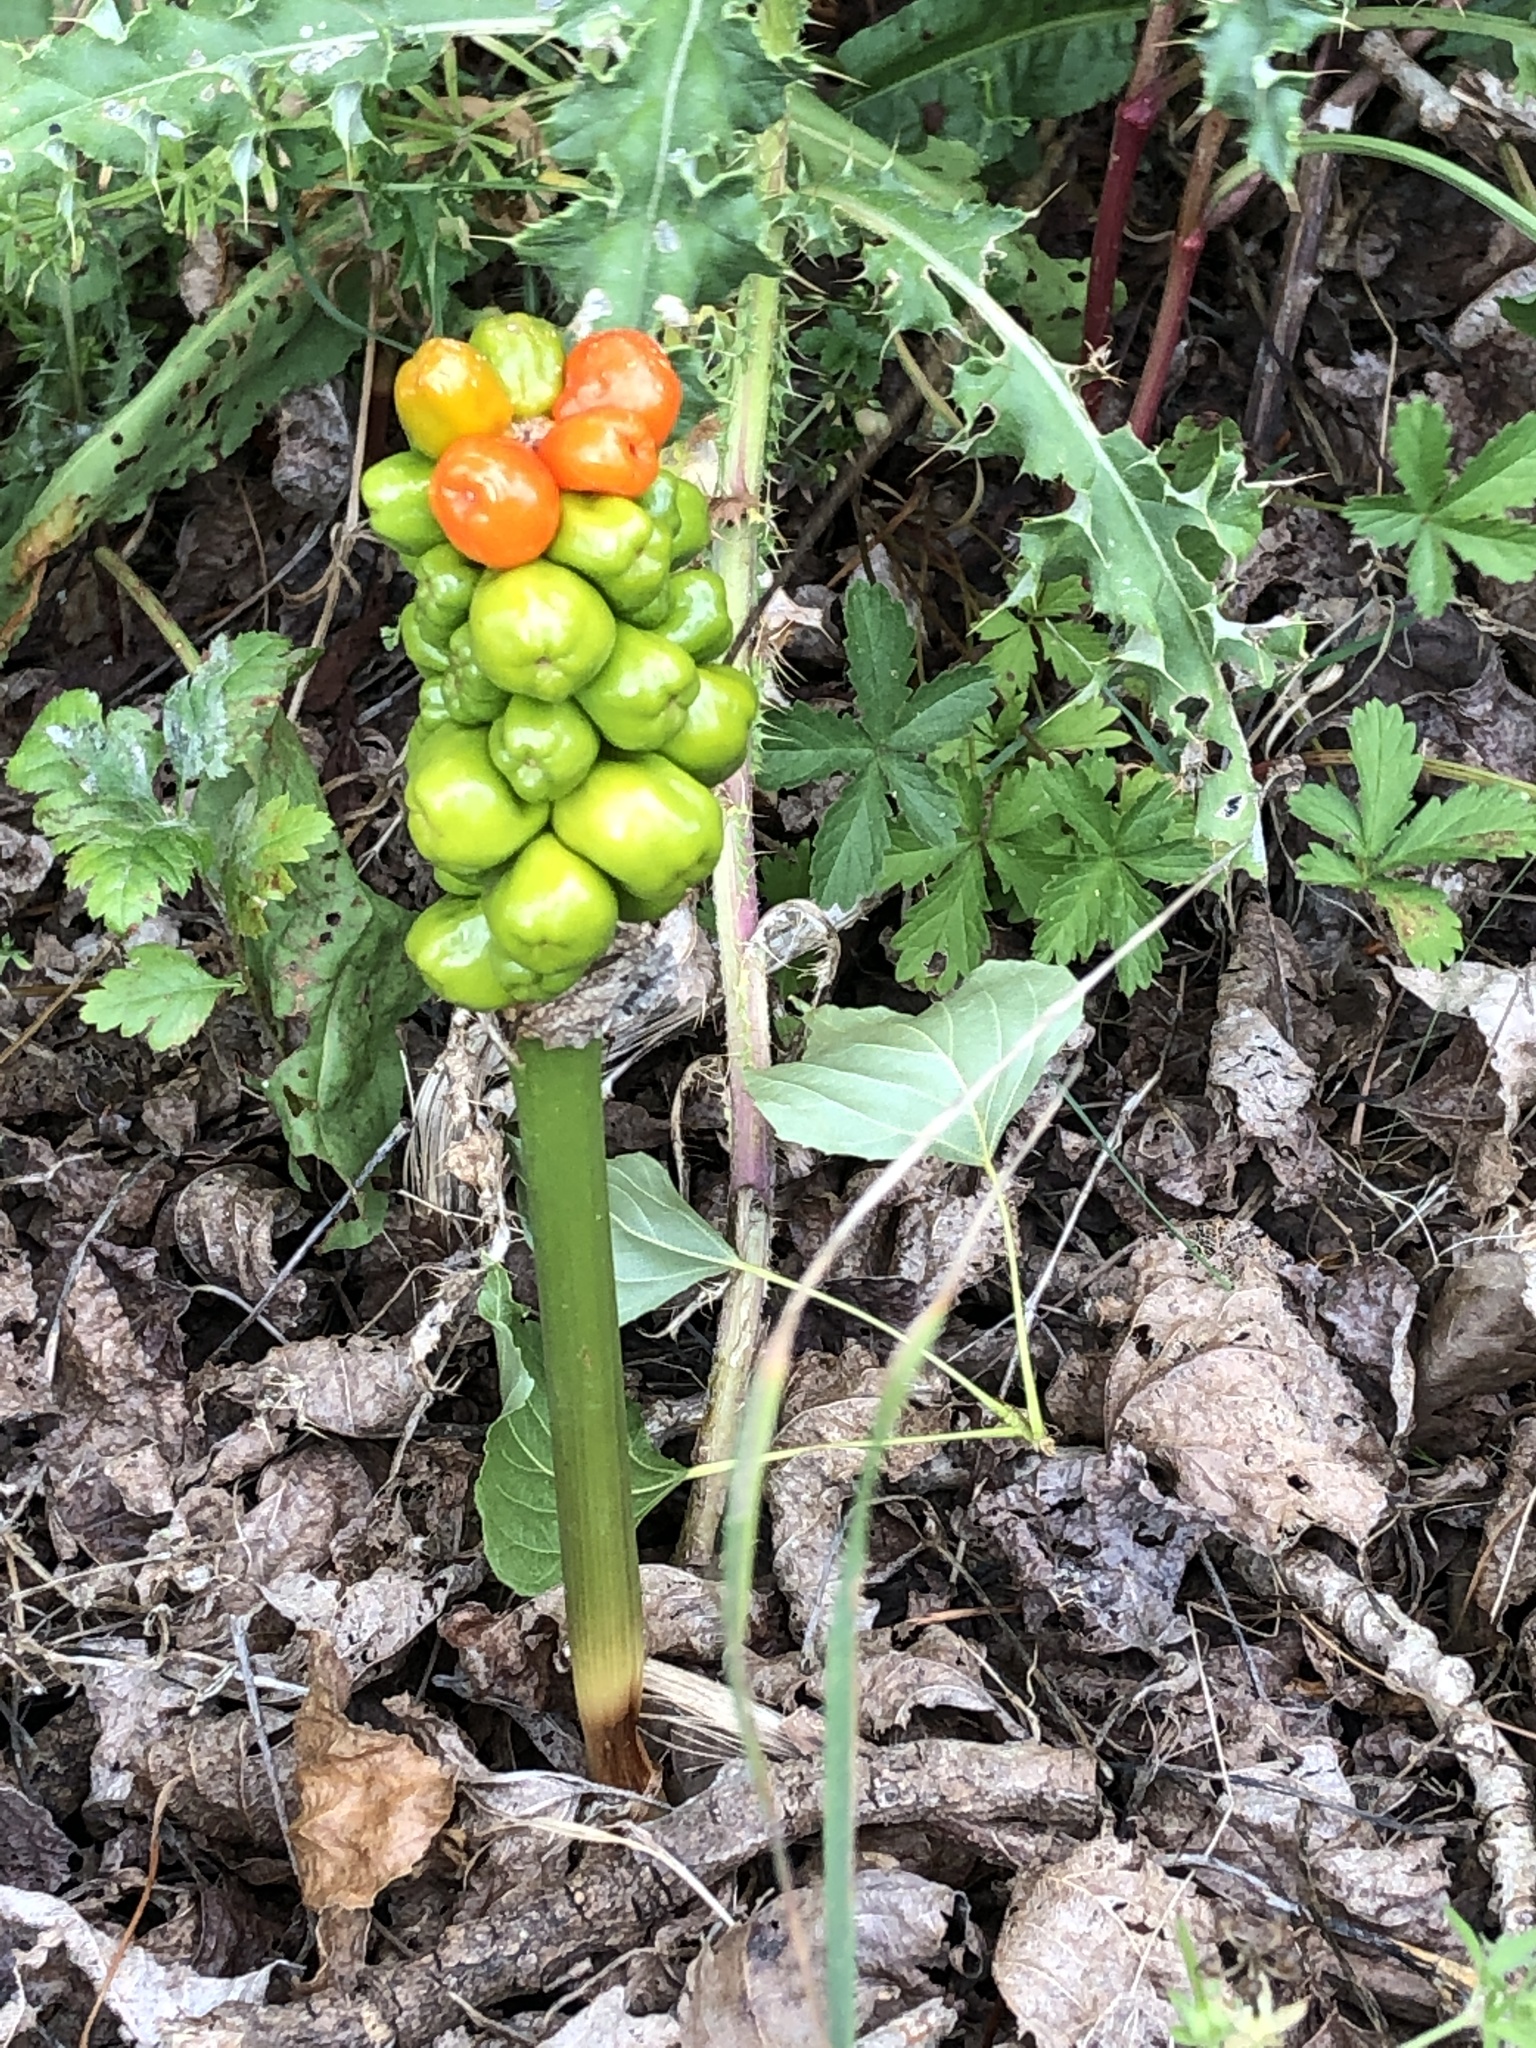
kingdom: Plantae
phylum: Tracheophyta
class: Liliopsida
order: Alismatales
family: Araceae
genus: Arum
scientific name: Arum maculatum
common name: Lords-and-ladies
